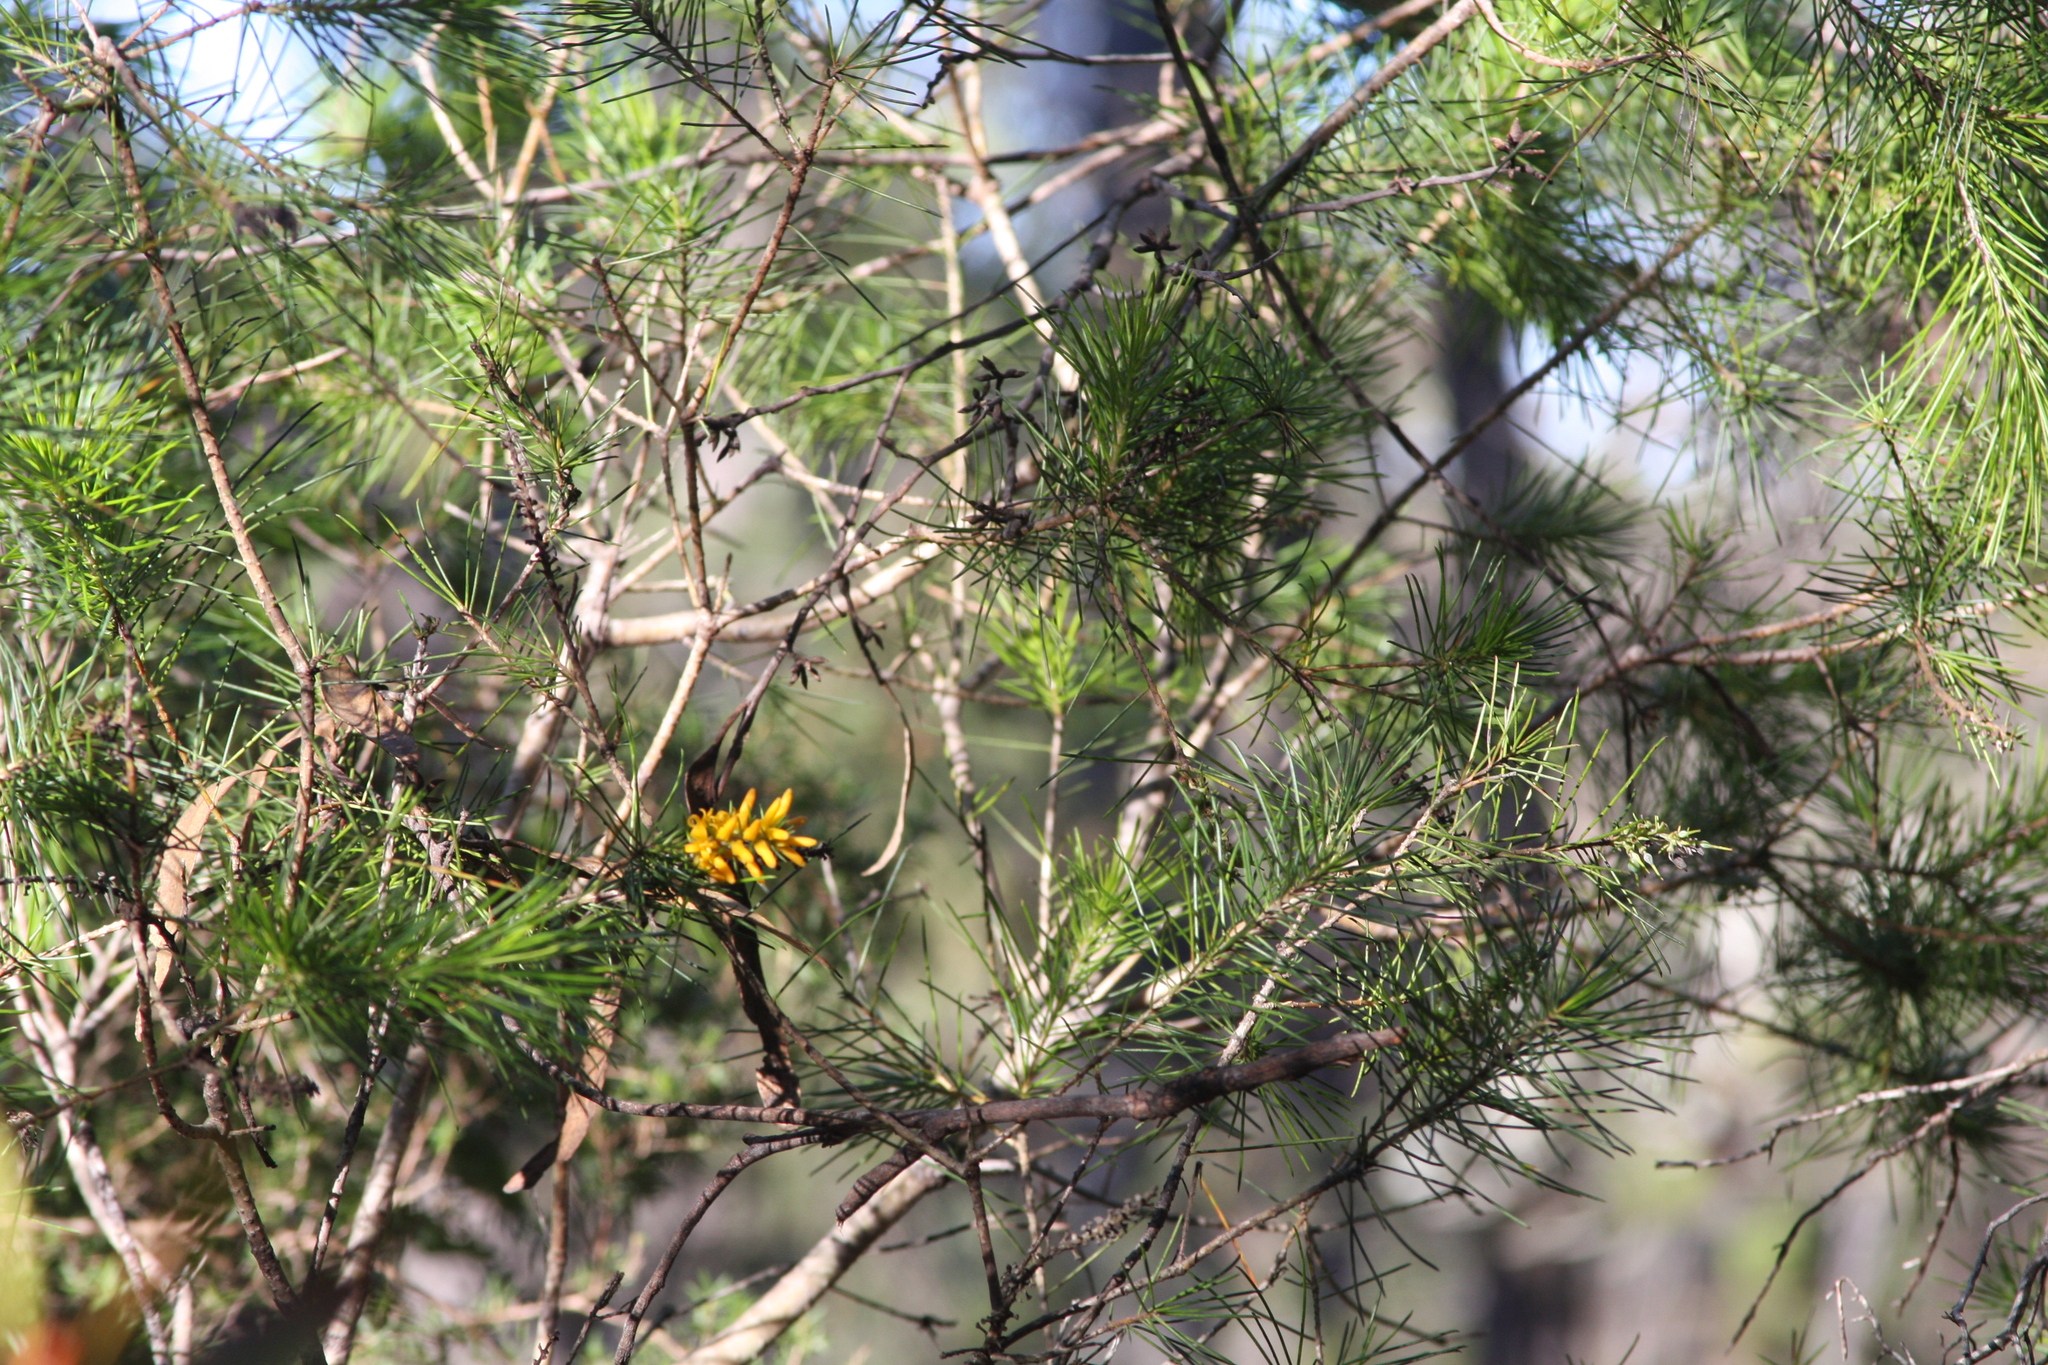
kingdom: Plantae
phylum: Tracheophyta
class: Magnoliopsida
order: Proteales
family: Proteaceae
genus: Persoonia
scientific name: Persoonia pinifolia
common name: Pine-leaf geebung
